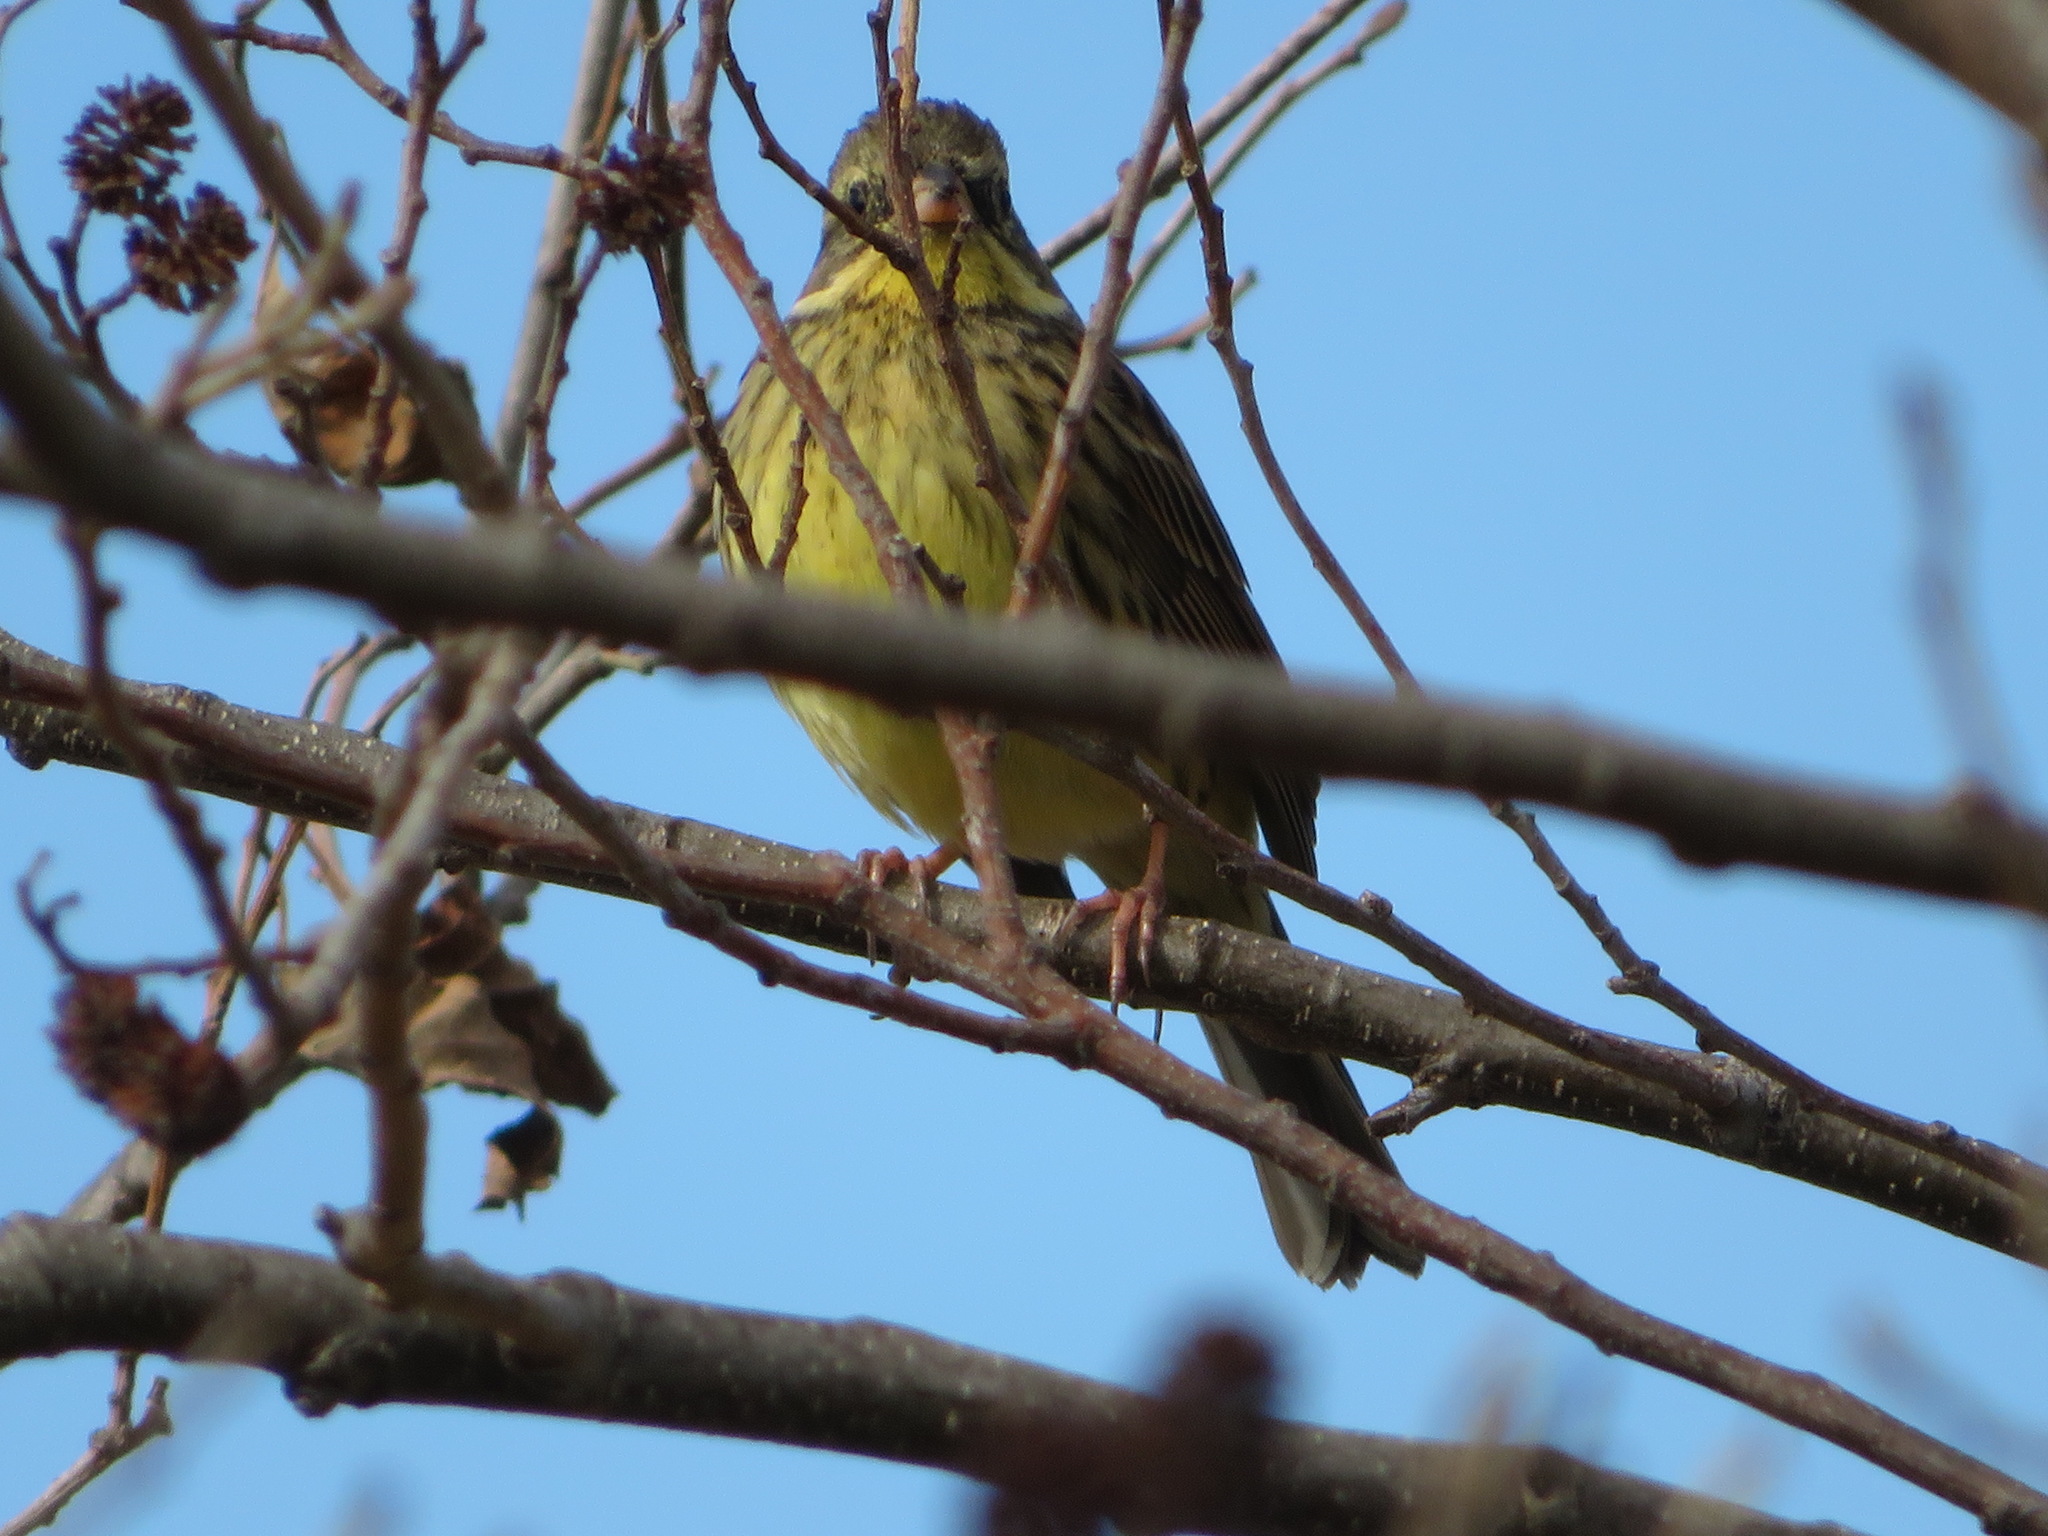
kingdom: Animalia
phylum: Chordata
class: Aves
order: Passeriformes
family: Emberizidae
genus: Emberiza
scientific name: Emberiza personata
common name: Masked bunting
